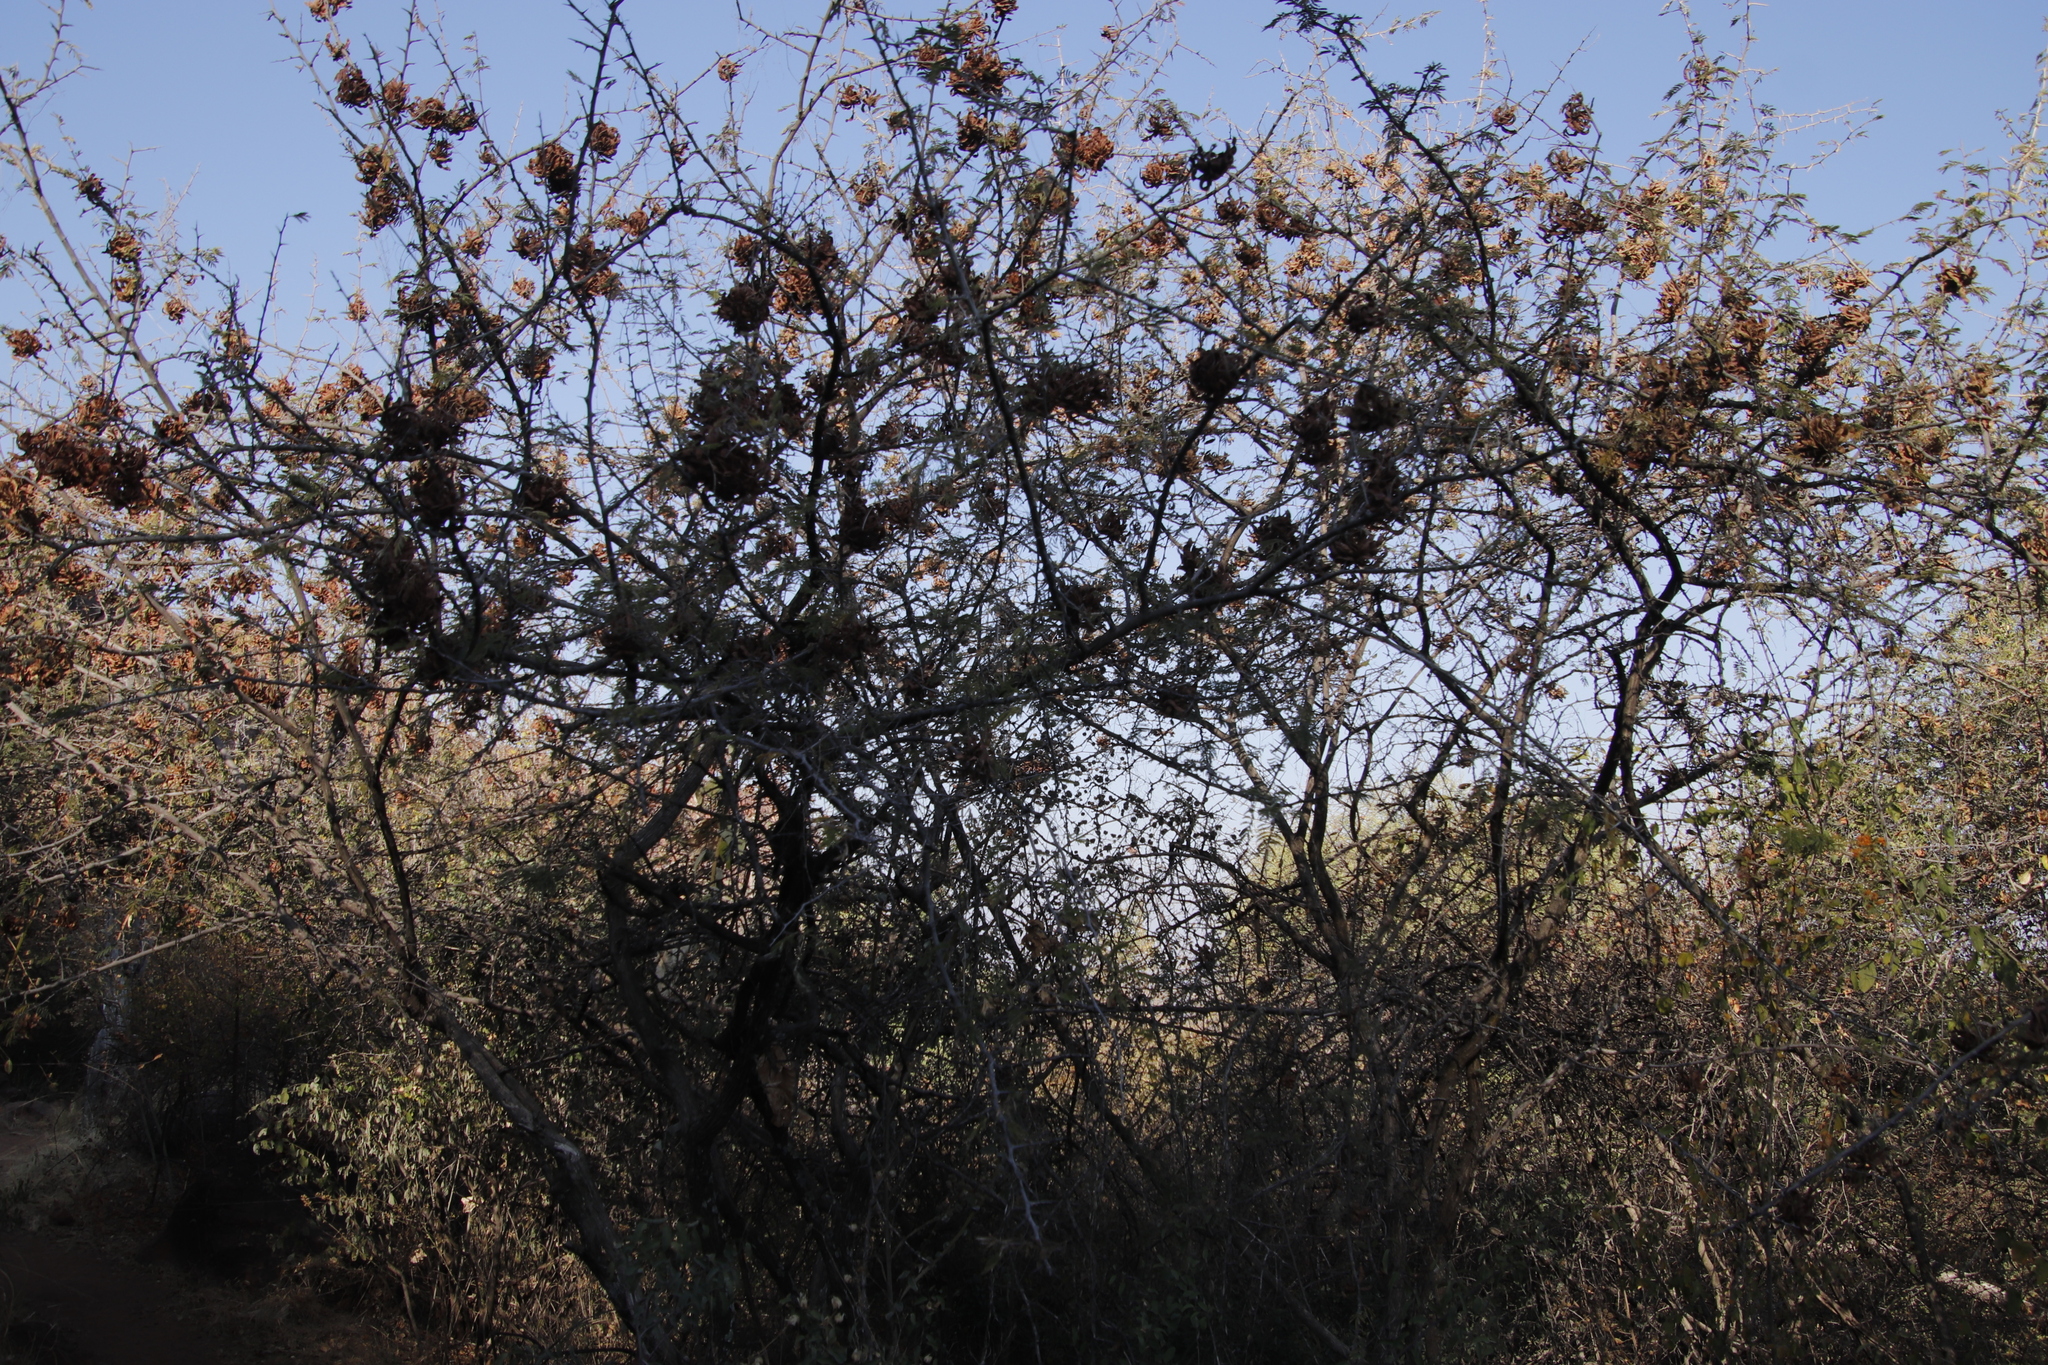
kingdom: Plantae
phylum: Tracheophyta
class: Magnoliopsida
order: Fabales
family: Fabaceae
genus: Dichrostachys
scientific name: Dichrostachys cinerea
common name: Sicklebush
